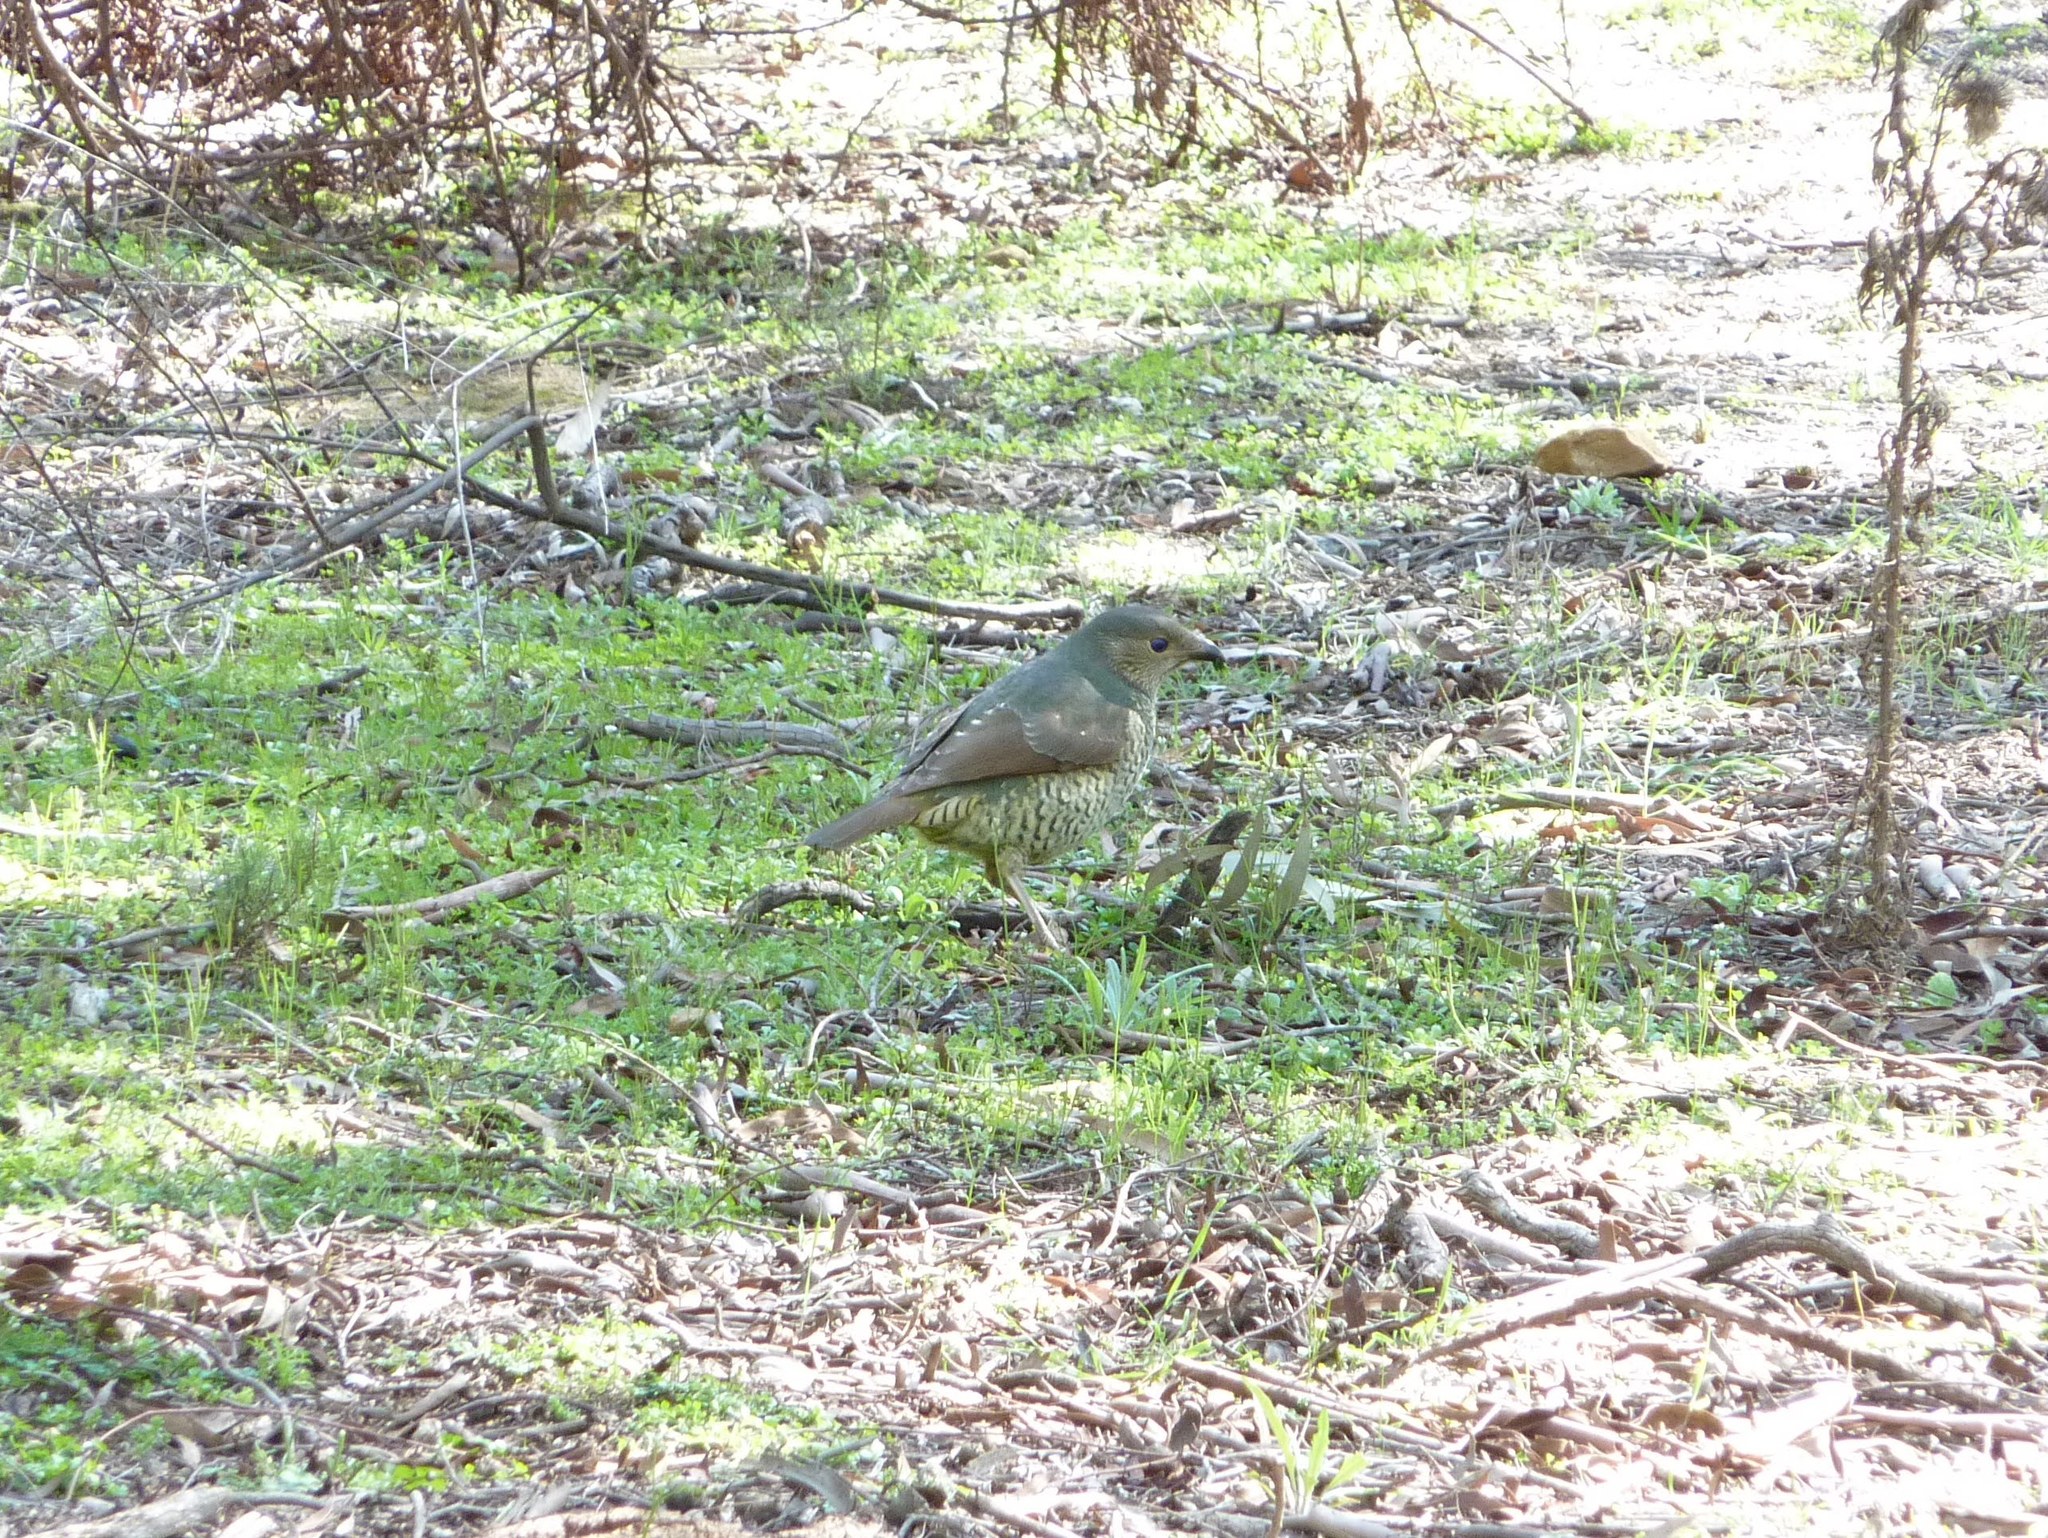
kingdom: Animalia
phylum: Chordata
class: Aves
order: Passeriformes
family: Ptilonorhynchidae
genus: Ptilonorhynchus
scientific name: Ptilonorhynchus violaceus
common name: Satin bowerbird
